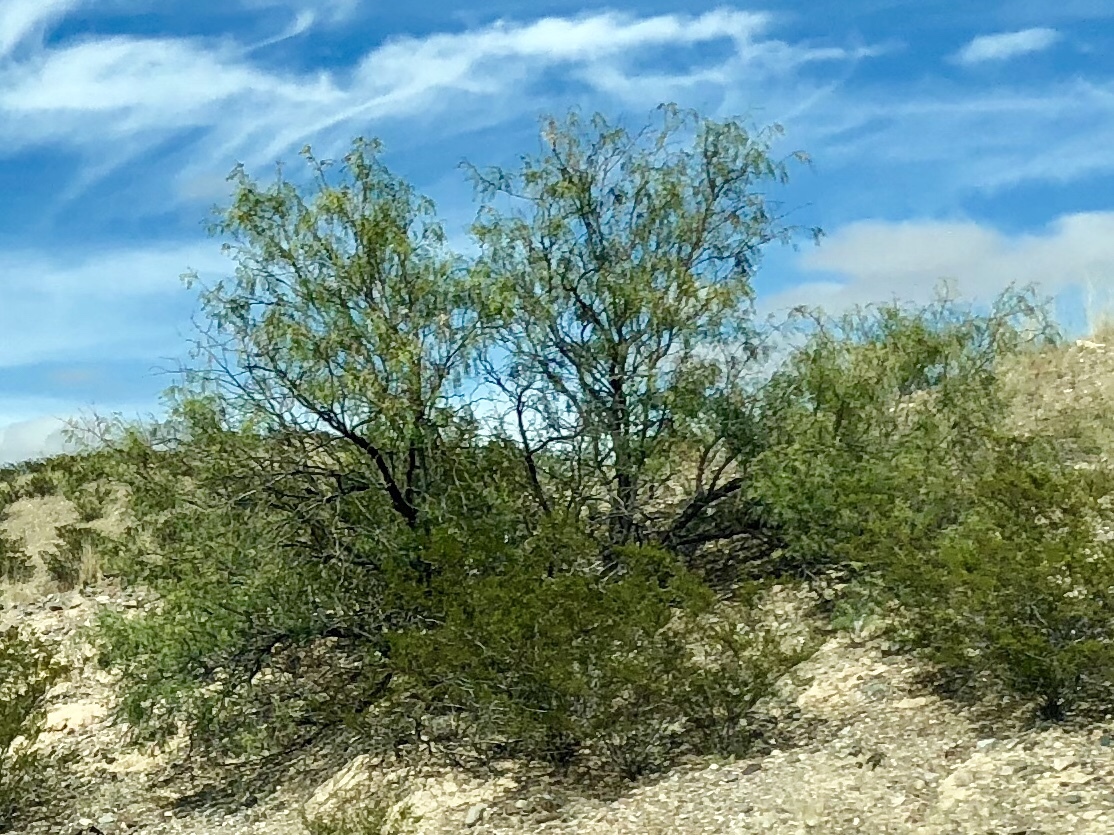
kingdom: Plantae
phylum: Tracheophyta
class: Magnoliopsida
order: Fabales
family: Fabaceae
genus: Prosopis
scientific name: Prosopis glandulosa
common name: Honey mesquite
